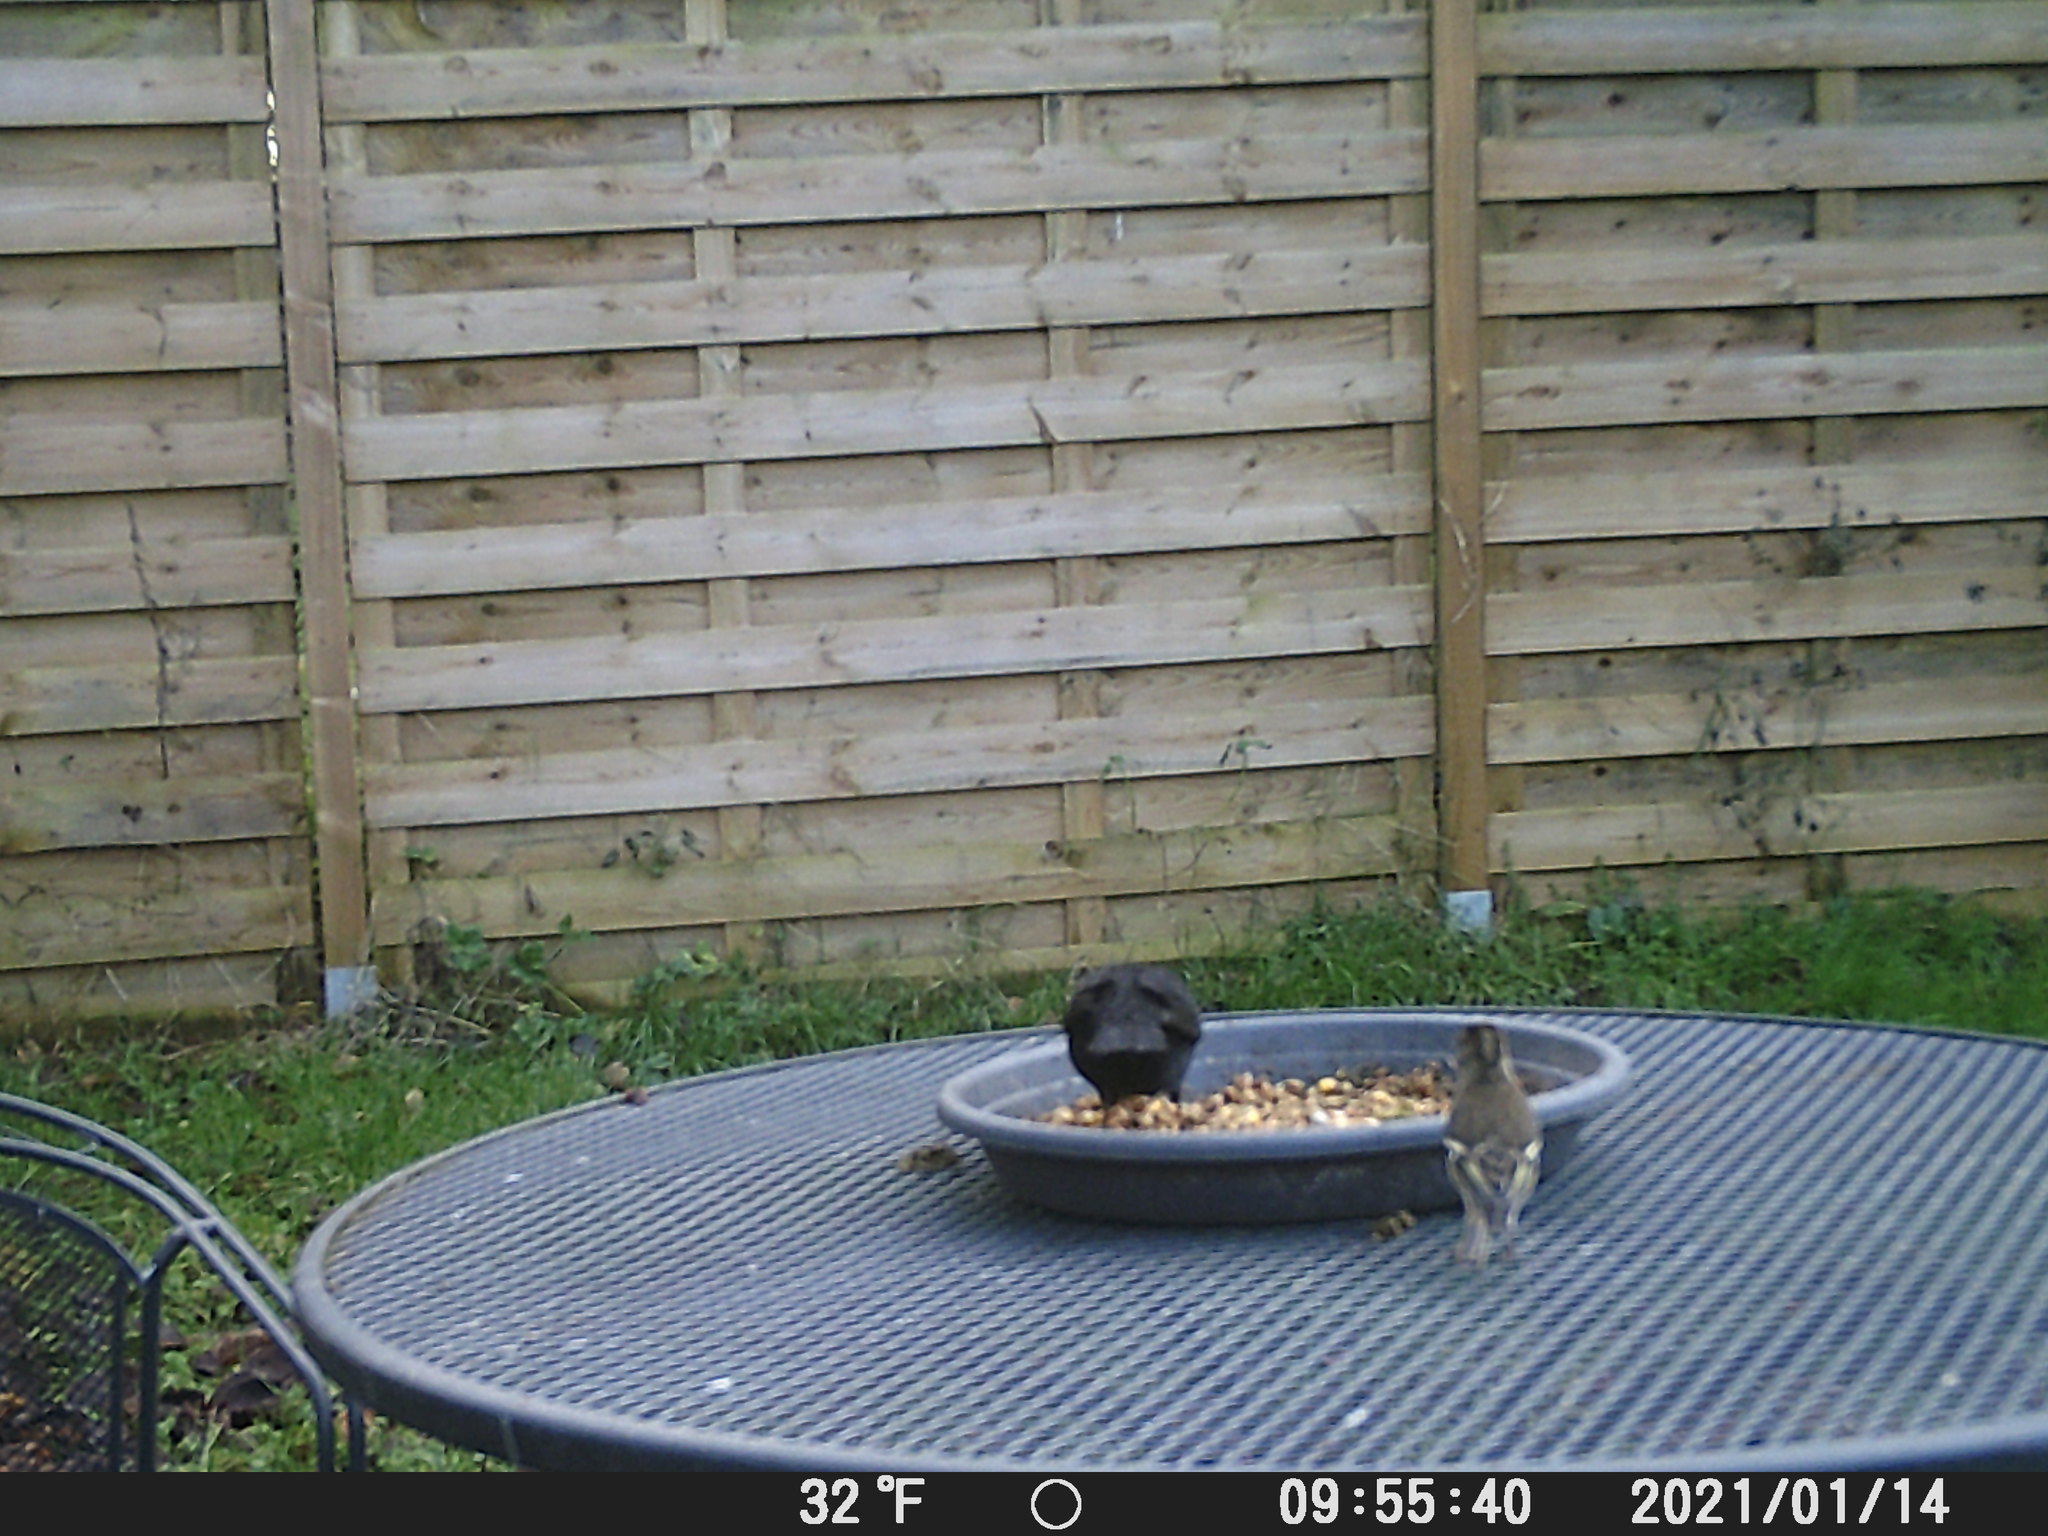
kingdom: Animalia
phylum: Chordata
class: Aves
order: Passeriformes
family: Fringillidae
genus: Fringilla
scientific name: Fringilla coelebs
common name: Common chaffinch
